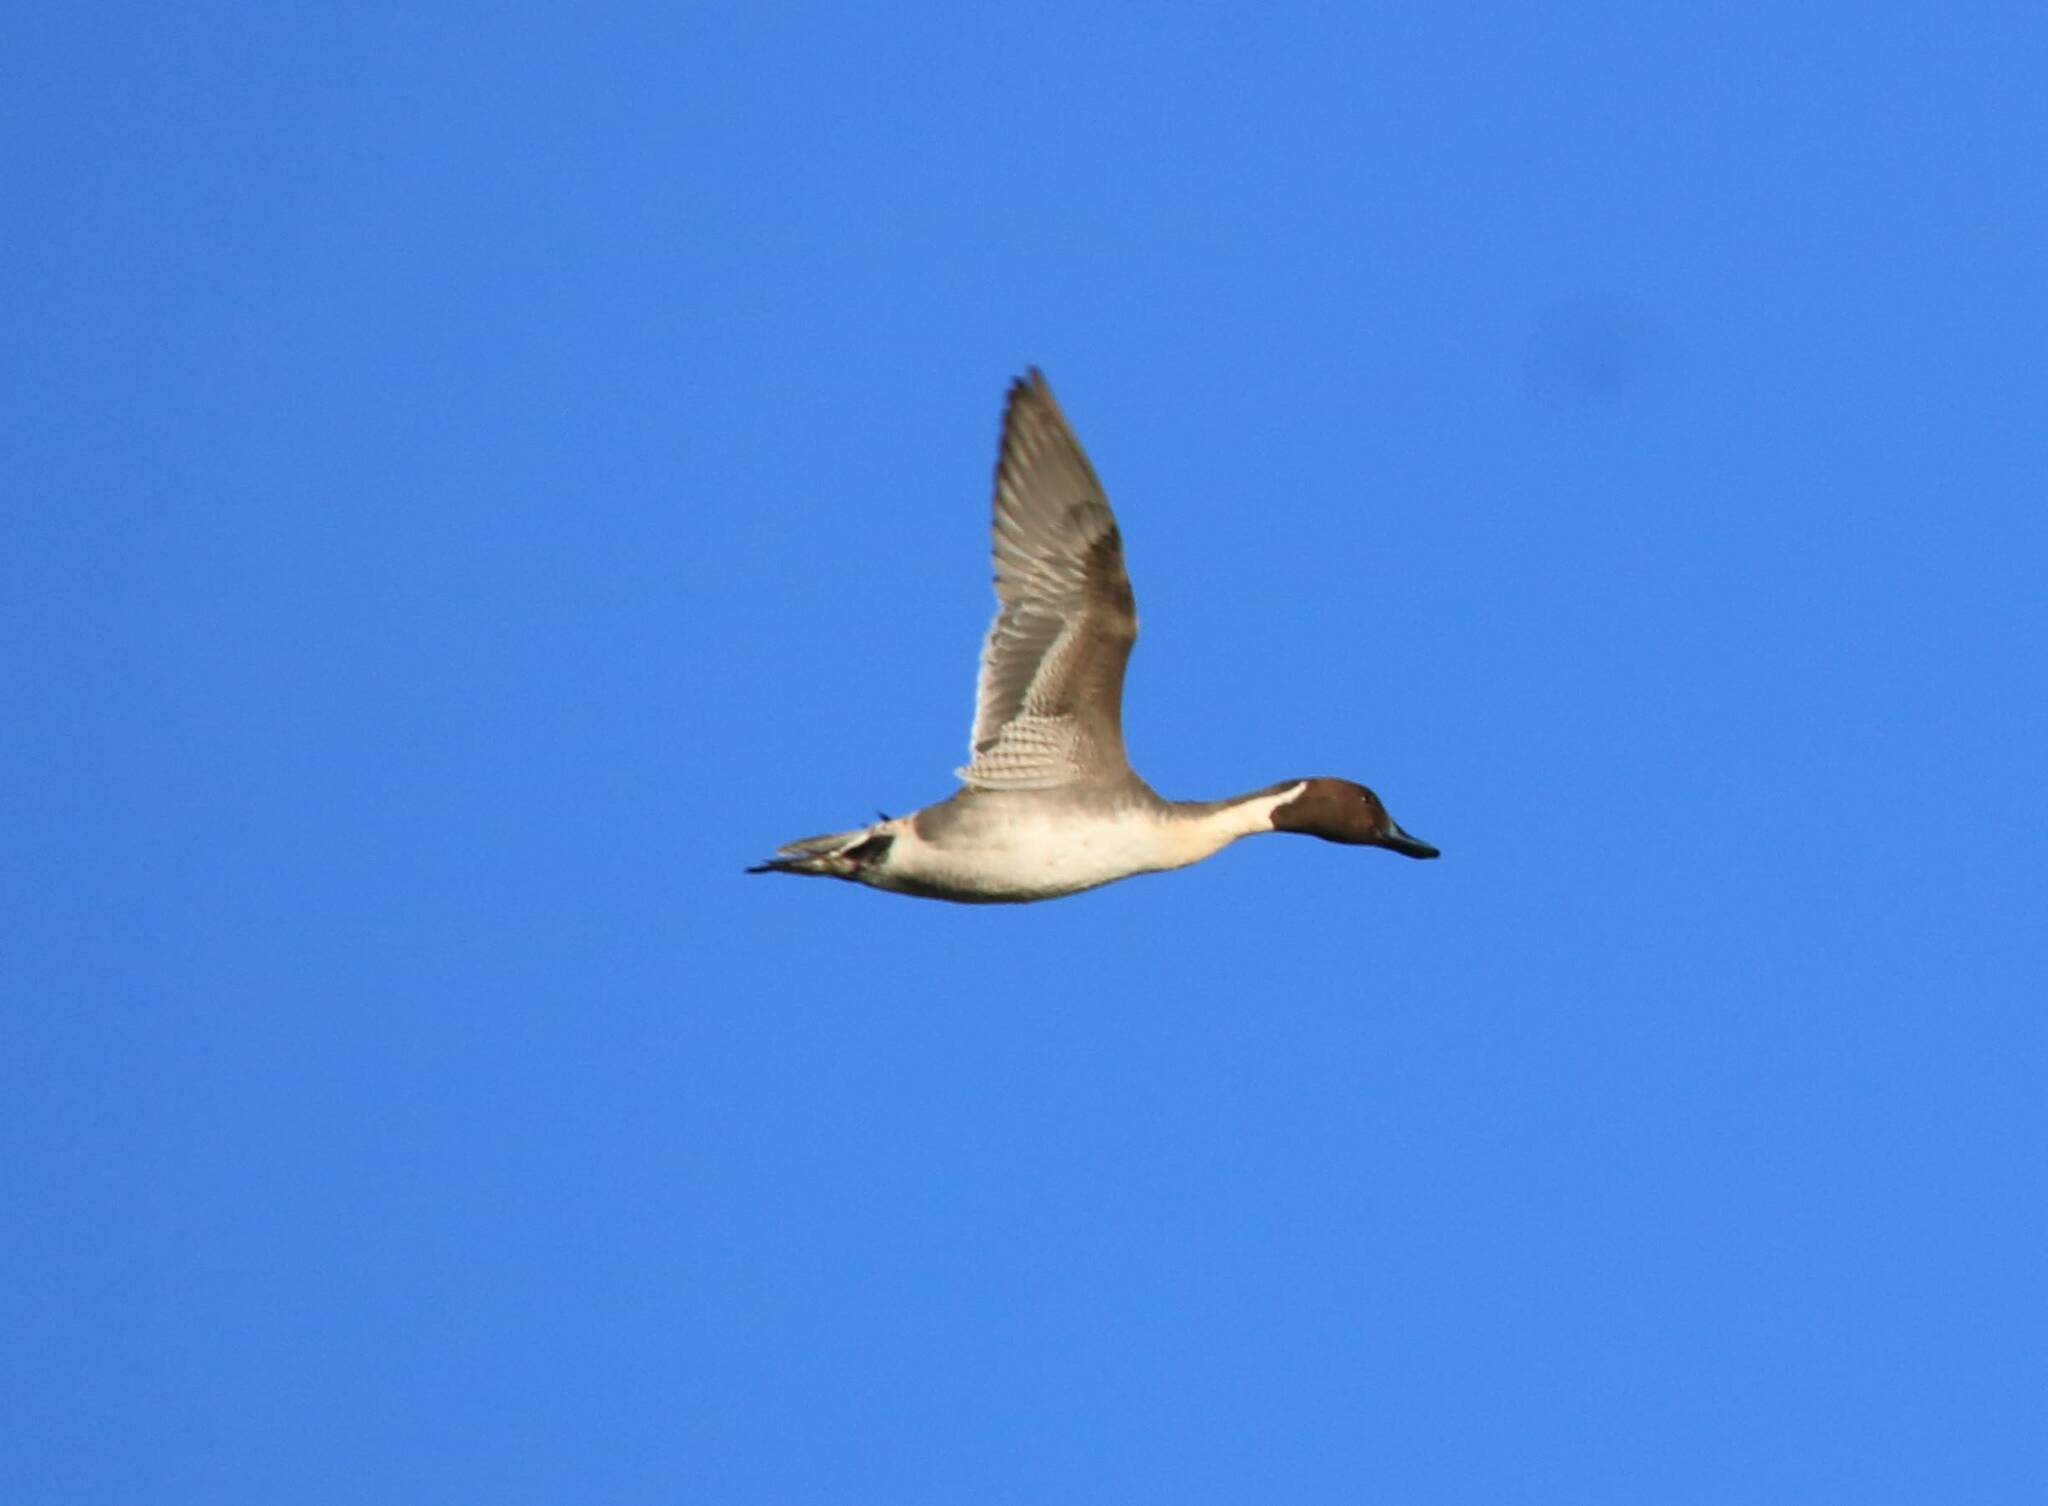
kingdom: Animalia
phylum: Chordata
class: Aves
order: Anseriformes
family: Anatidae
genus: Anas
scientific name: Anas acuta
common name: Northern pintail
